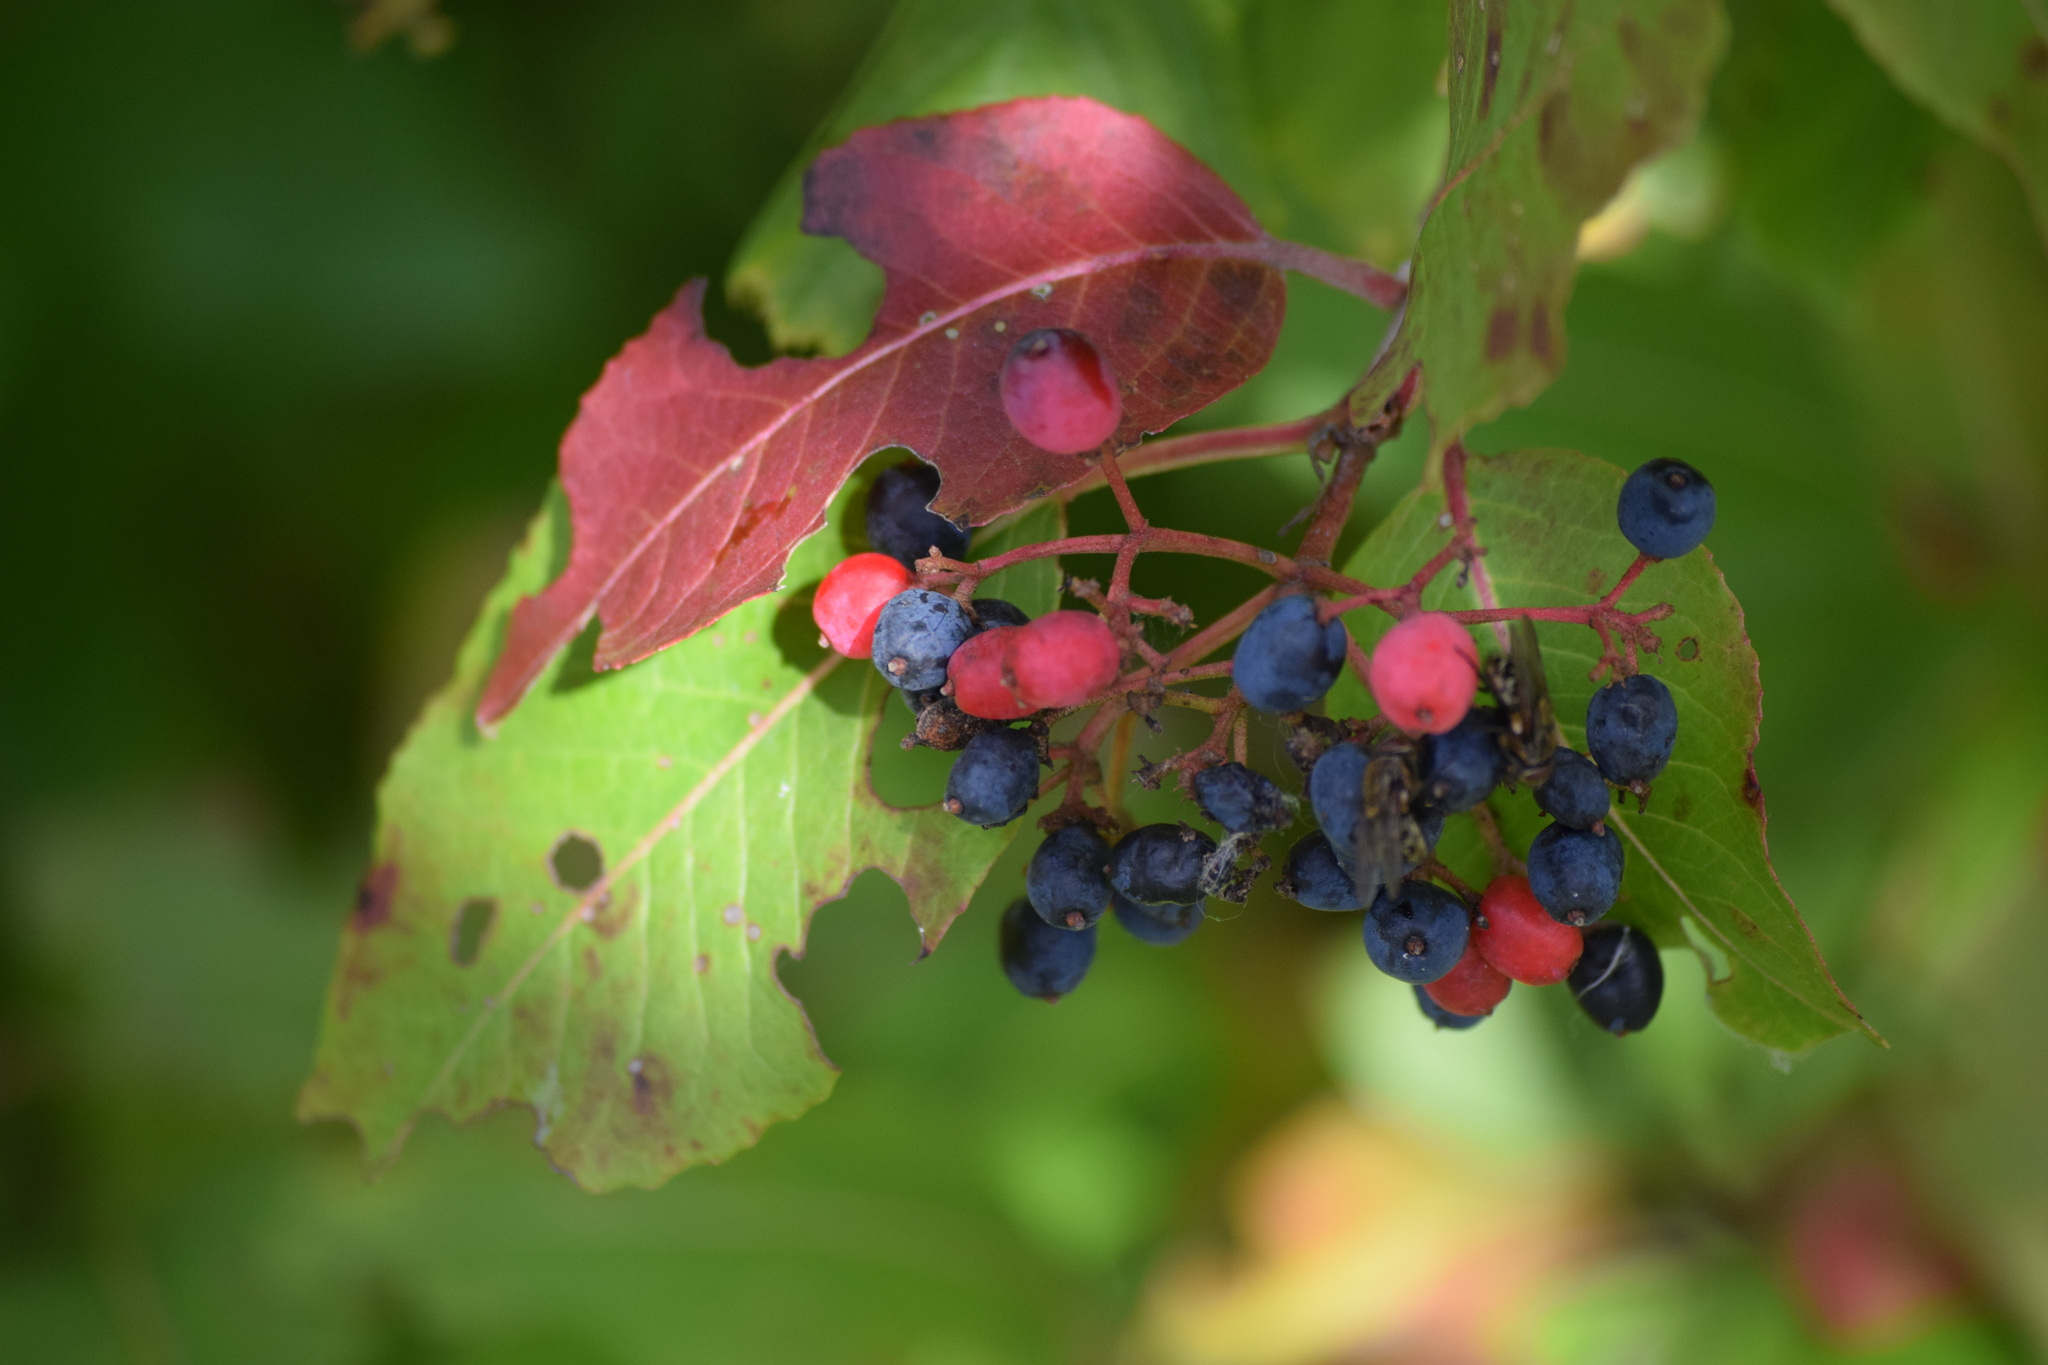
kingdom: Plantae
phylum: Tracheophyta
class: Magnoliopsida
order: Dipsacales
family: Viburnaceae
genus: Viburnum
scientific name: Viburnum cassinoides
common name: Swamp haw
